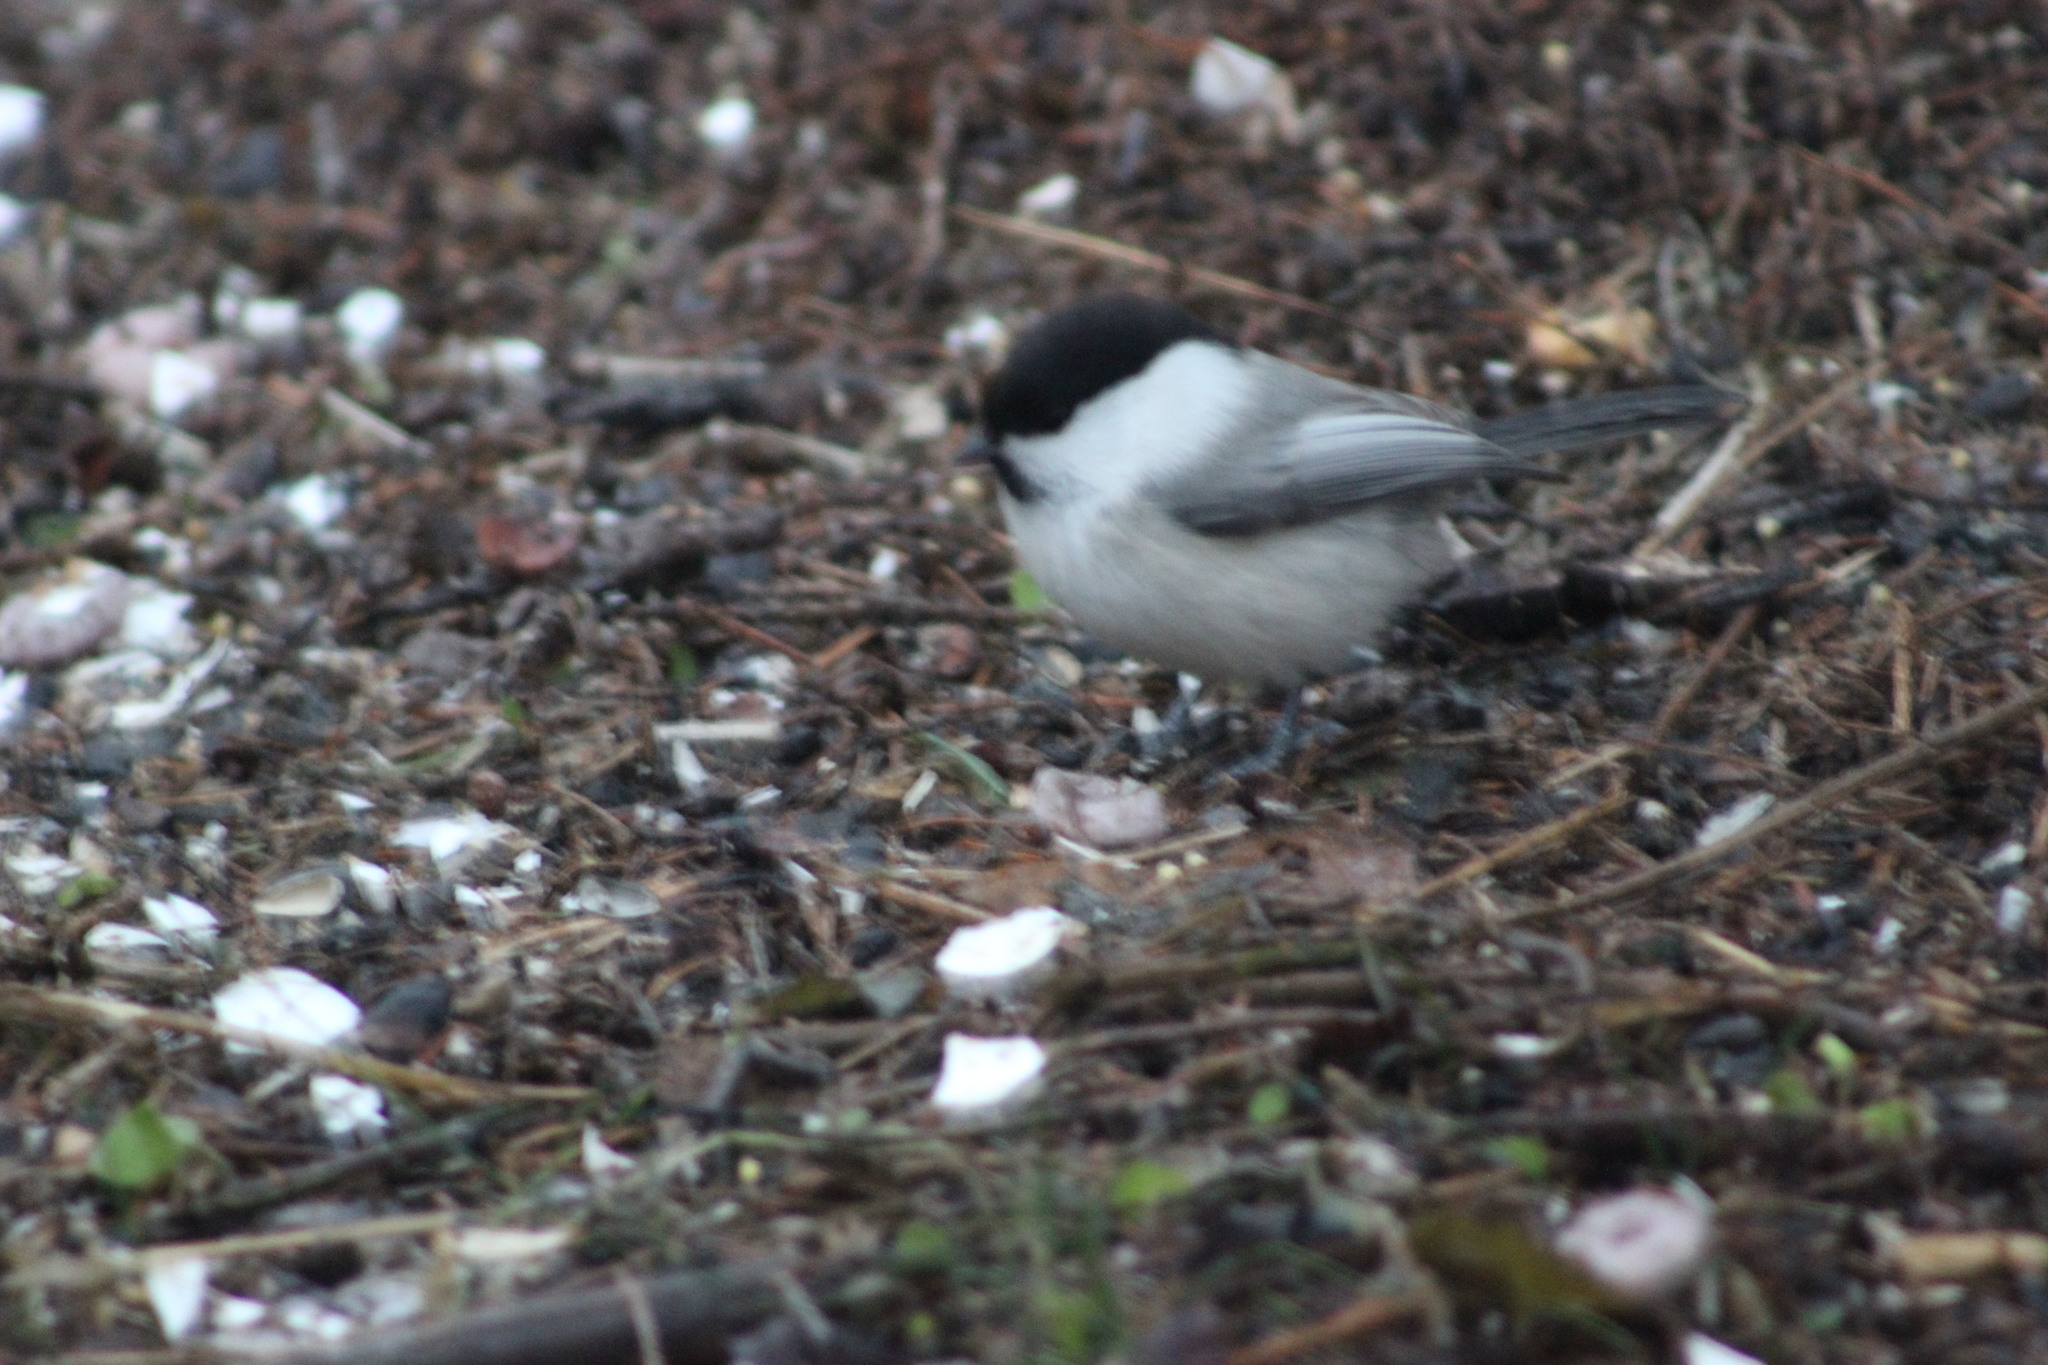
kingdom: Animalia
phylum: Chordata
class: Aves
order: Passeriformes
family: Paridae
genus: Poecile
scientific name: Poecile montanus
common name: Willow tit
